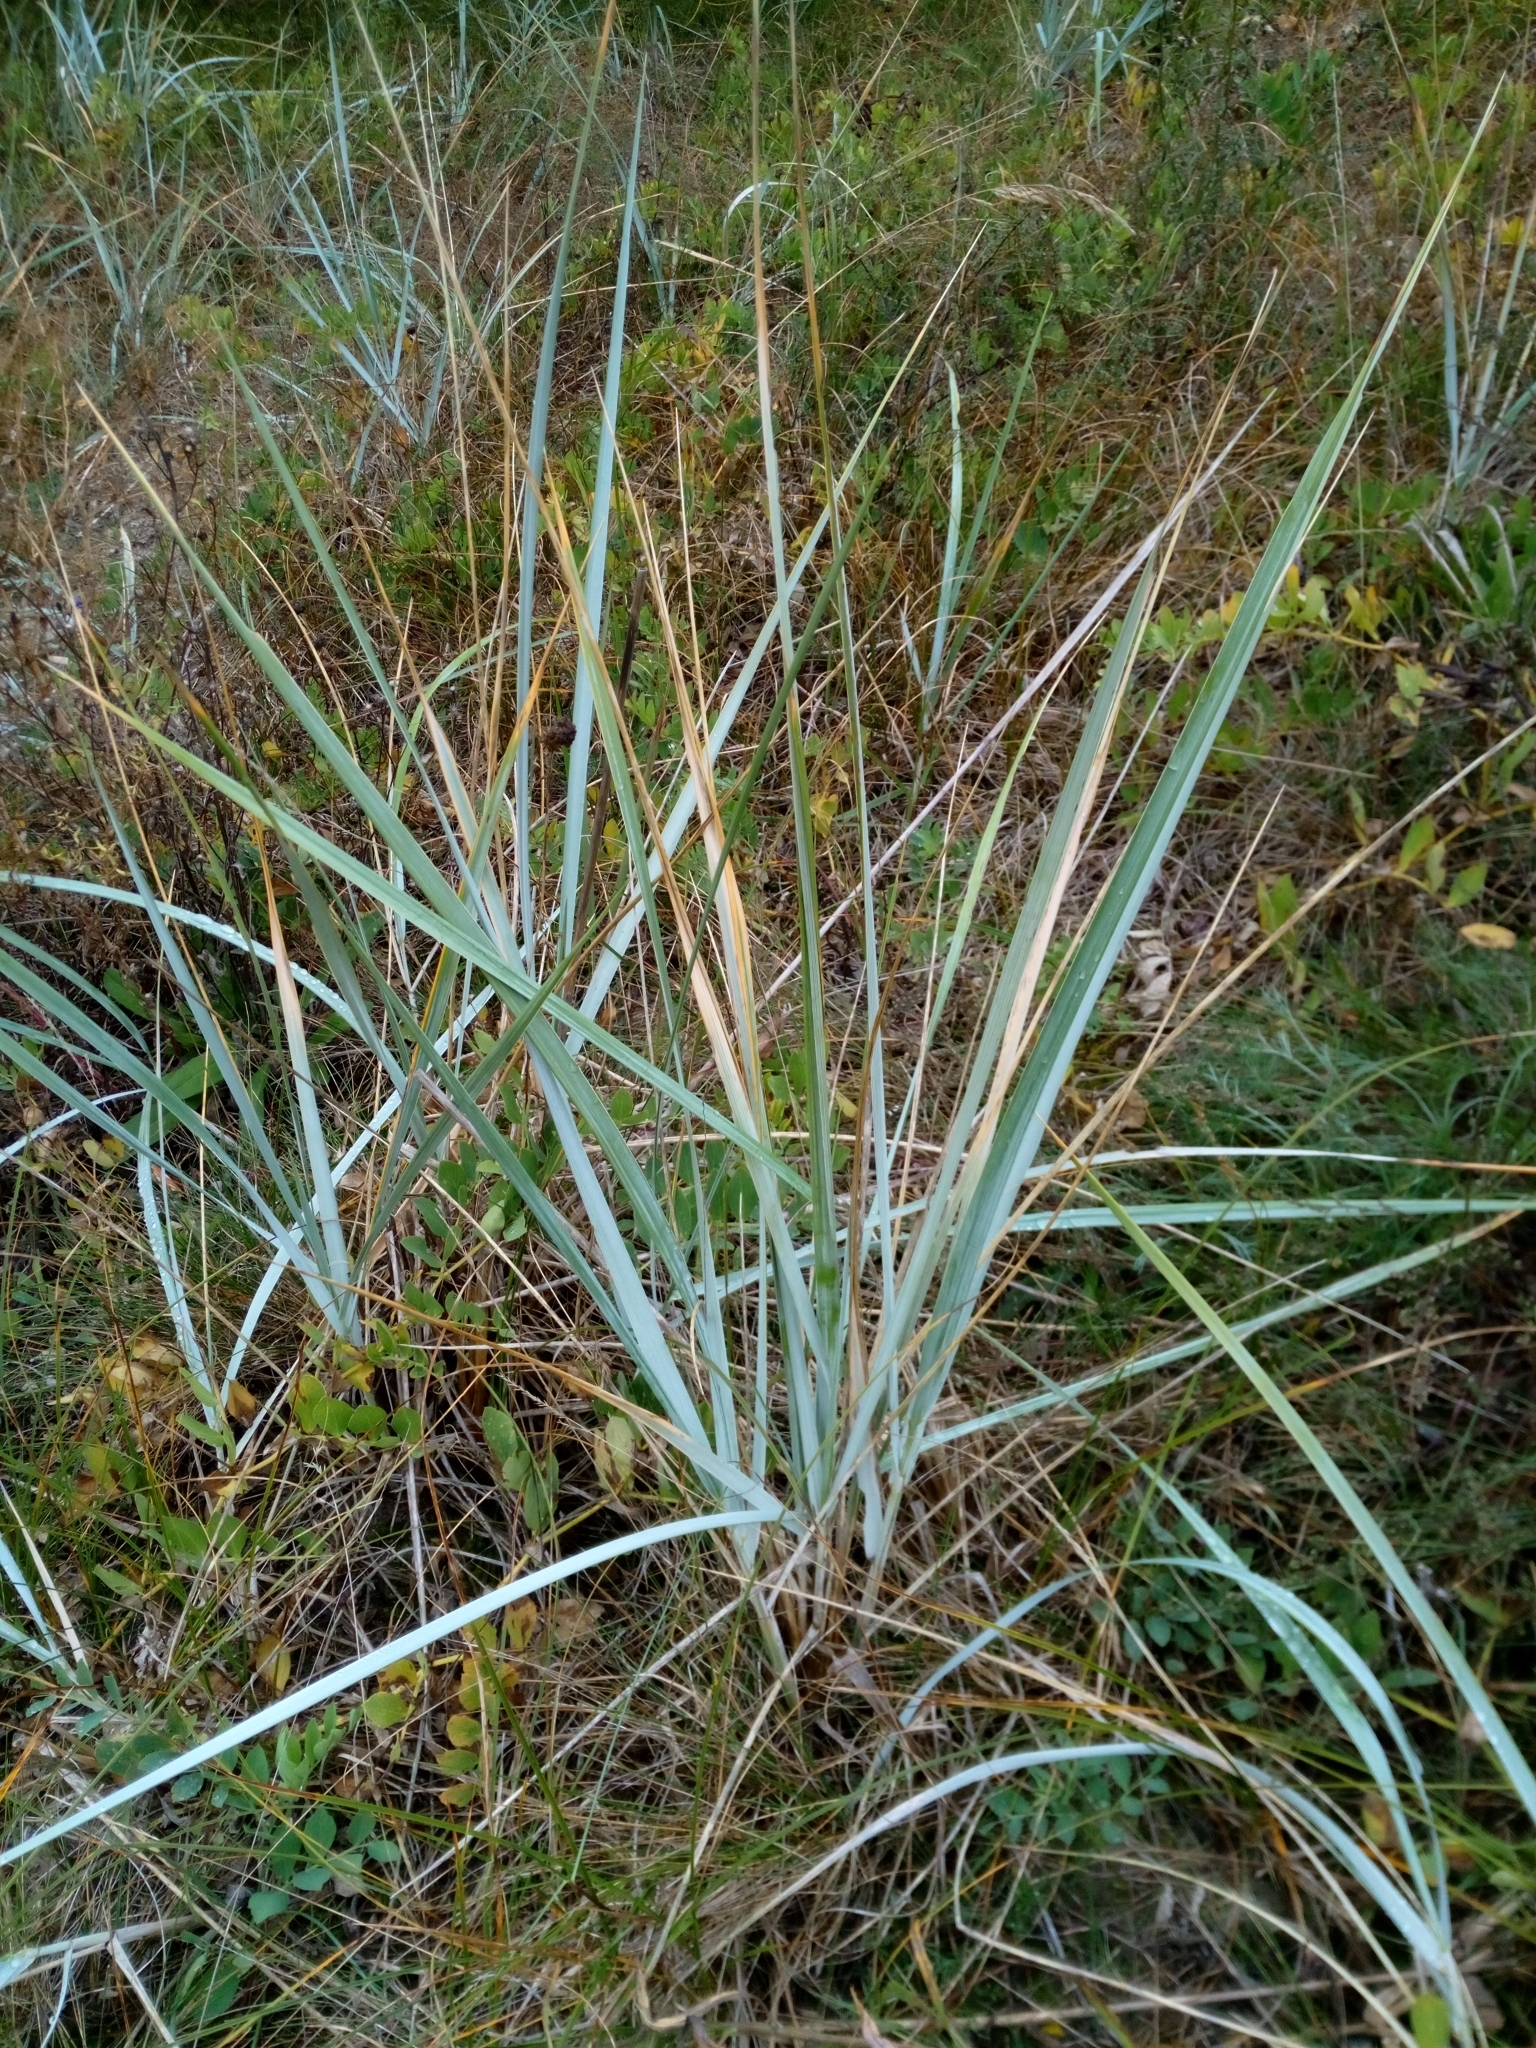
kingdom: Plantae
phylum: Tracheophyta
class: Liliopsida
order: Poales
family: Poaceae
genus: Leymus
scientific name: Leymus arenarius
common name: Lyme-grass
